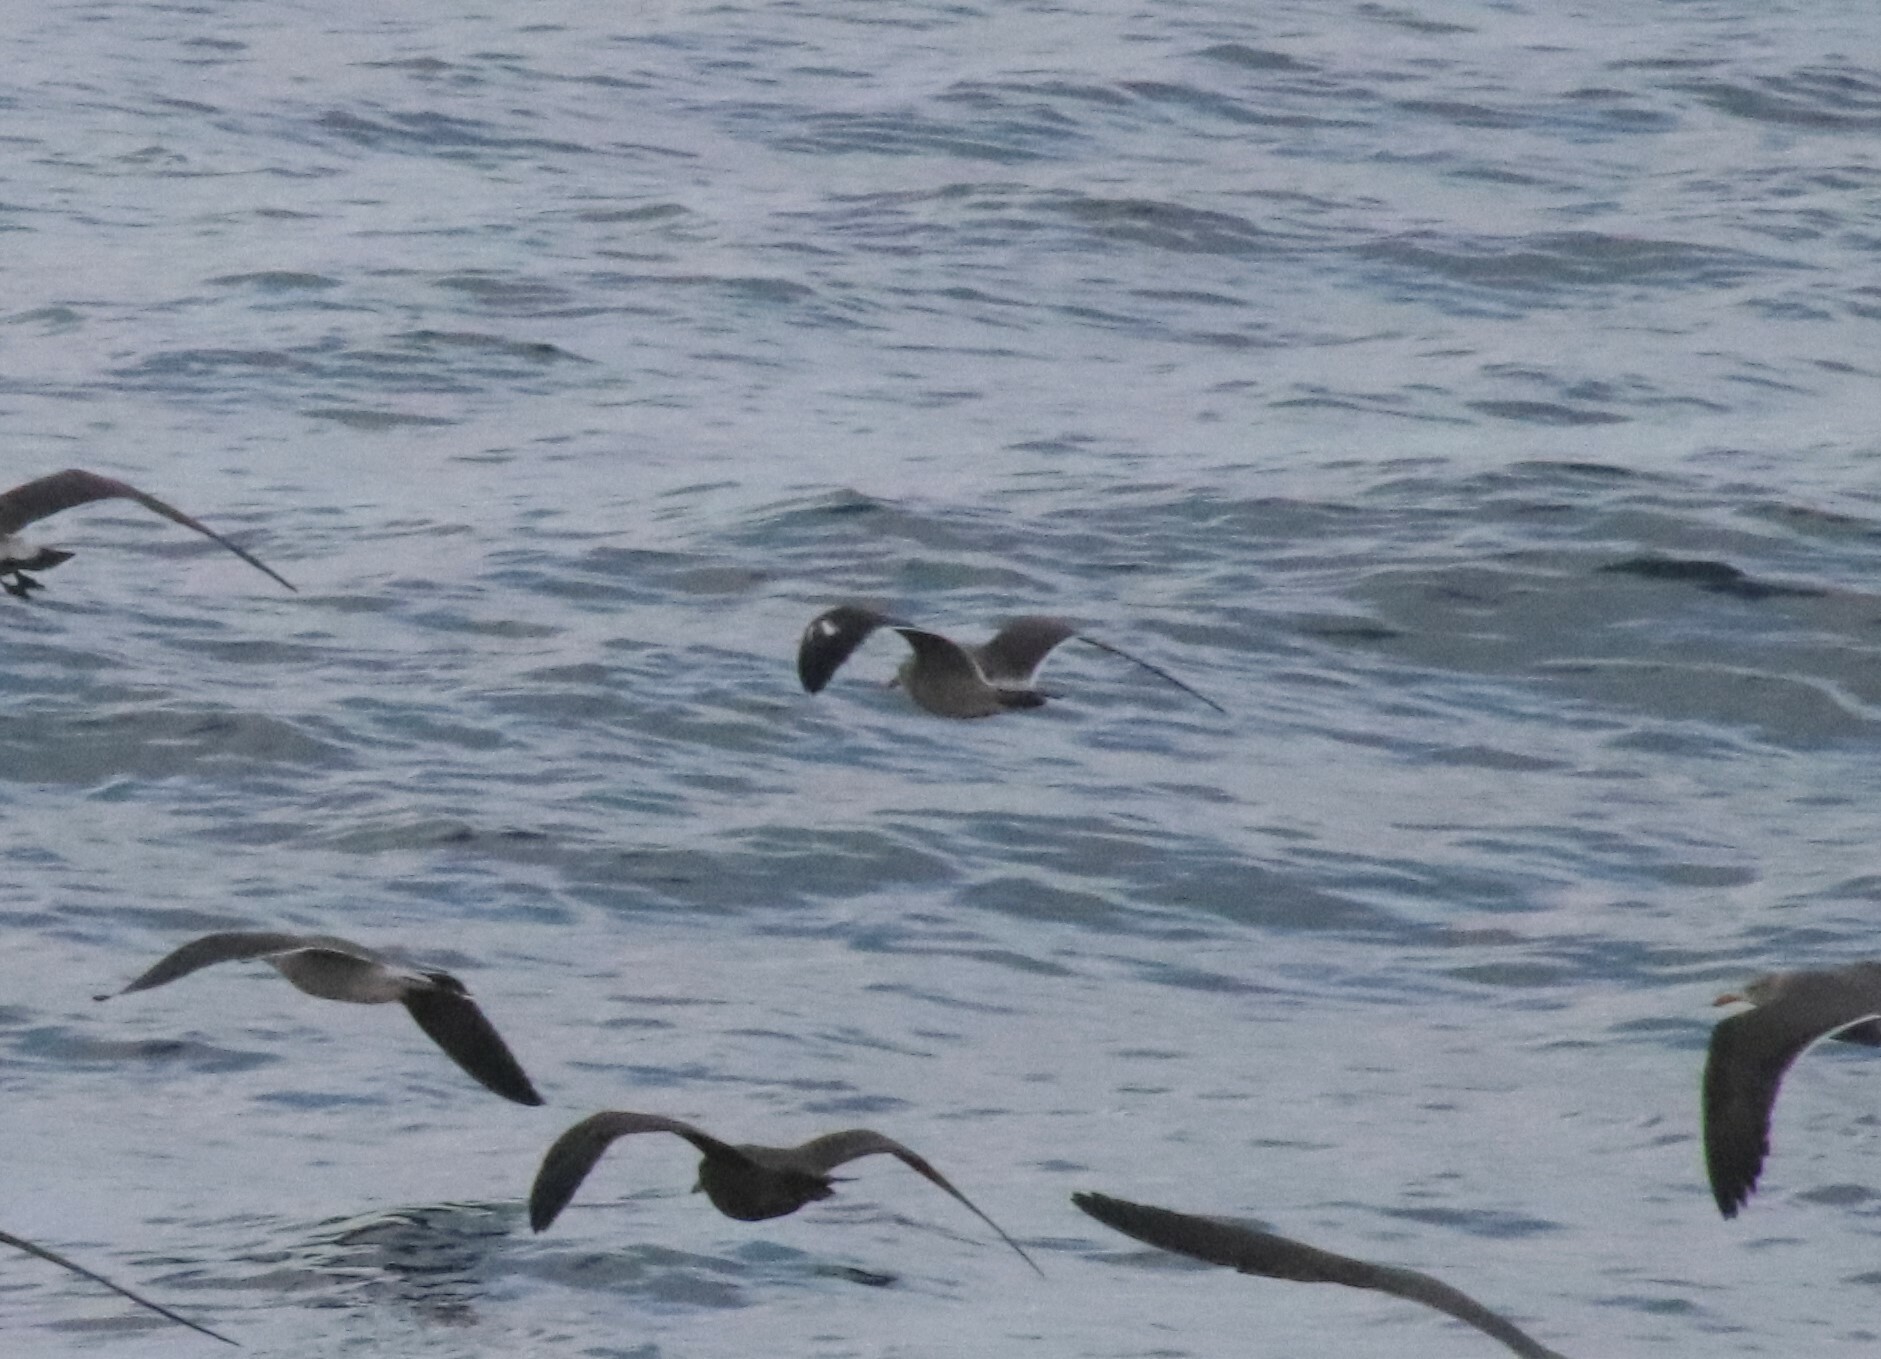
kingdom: Animalia
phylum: Chordata
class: Aves
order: Charadriiformes
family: Laridae
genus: Larus
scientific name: Larus heermanni
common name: Heermann's gull
